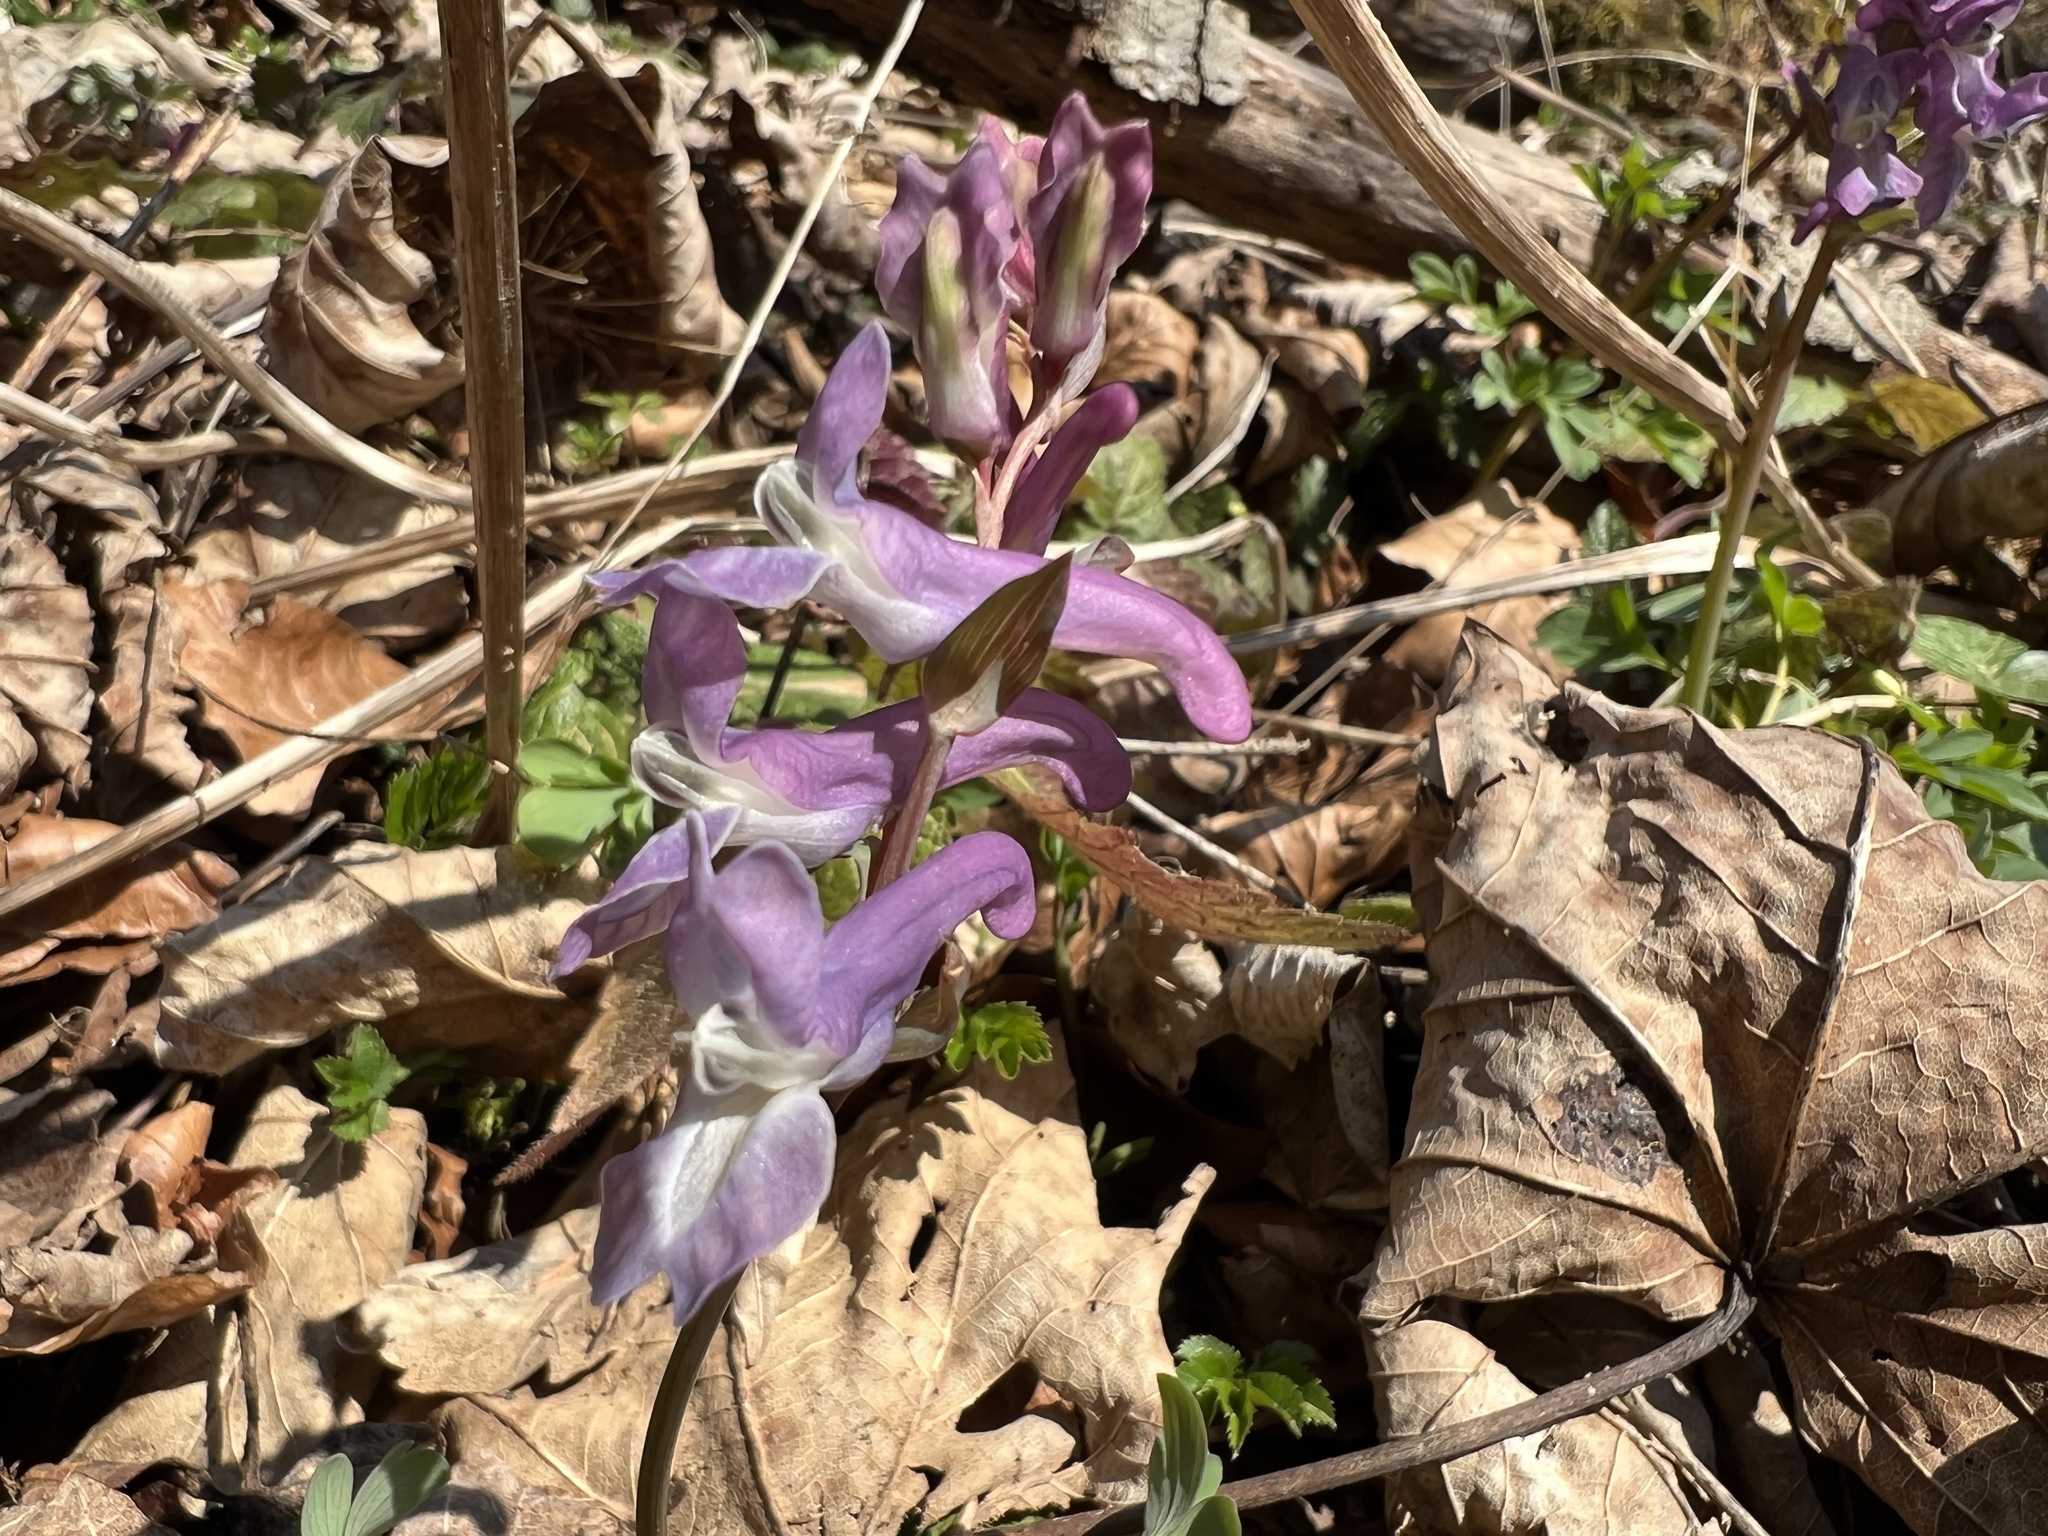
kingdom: Plantae
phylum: Tracheophyta
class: Magnoliopsida
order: Ranunculales
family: Papaveraceae
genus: Corydalis
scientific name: Corydalis cava
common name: Hollowroot
